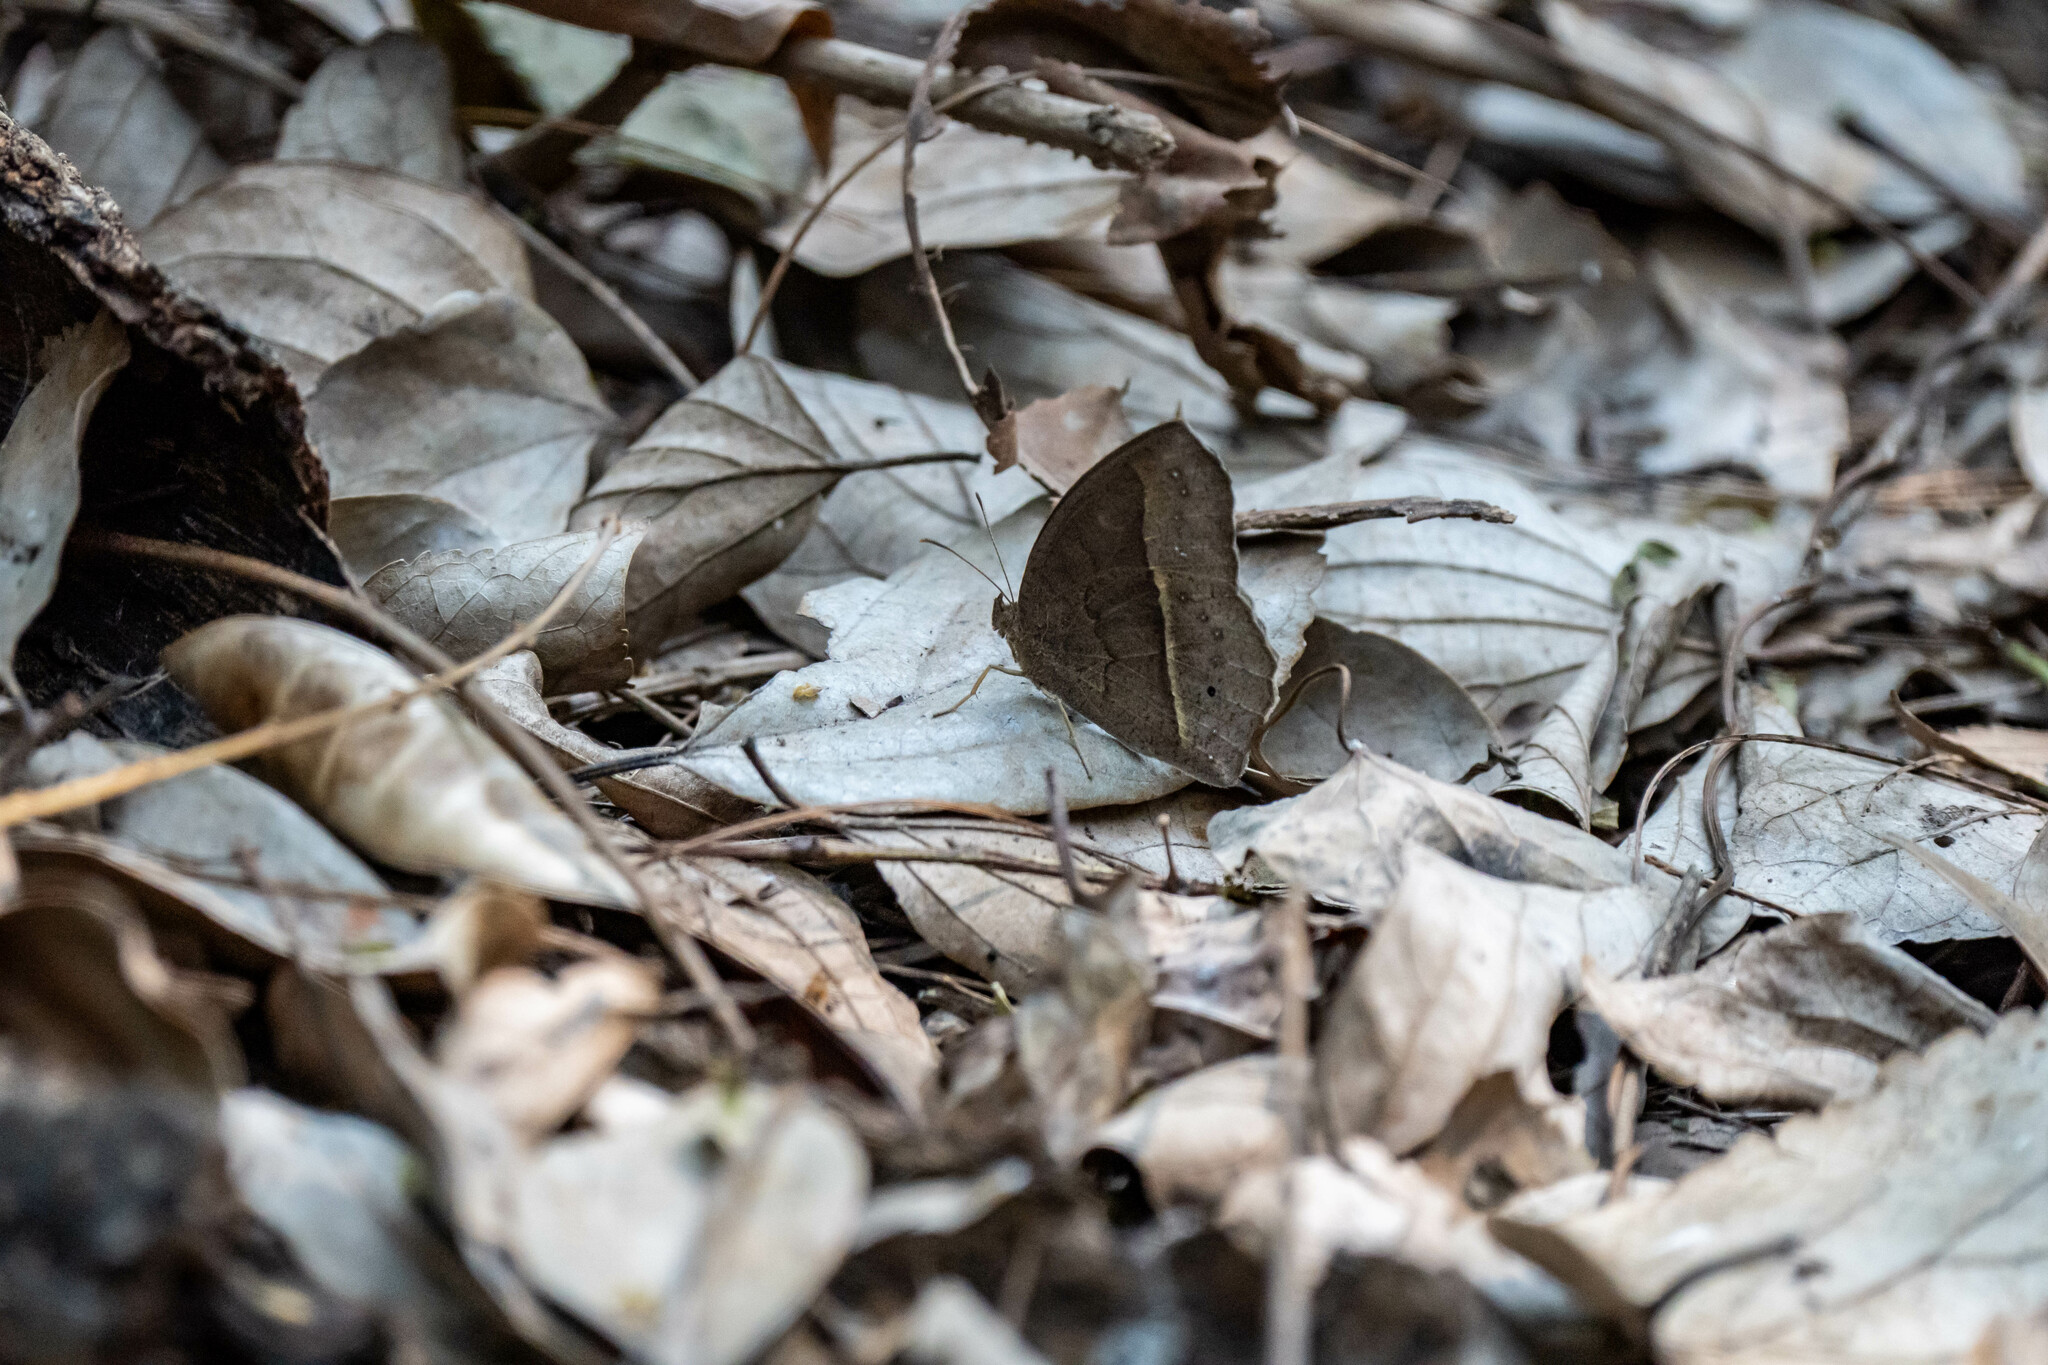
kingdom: Animalia
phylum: Arthropoda
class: Insecta
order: Lepidoptera
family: Nymphalidae
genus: Mycalesis
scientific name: Mycalesis horsfieldii
